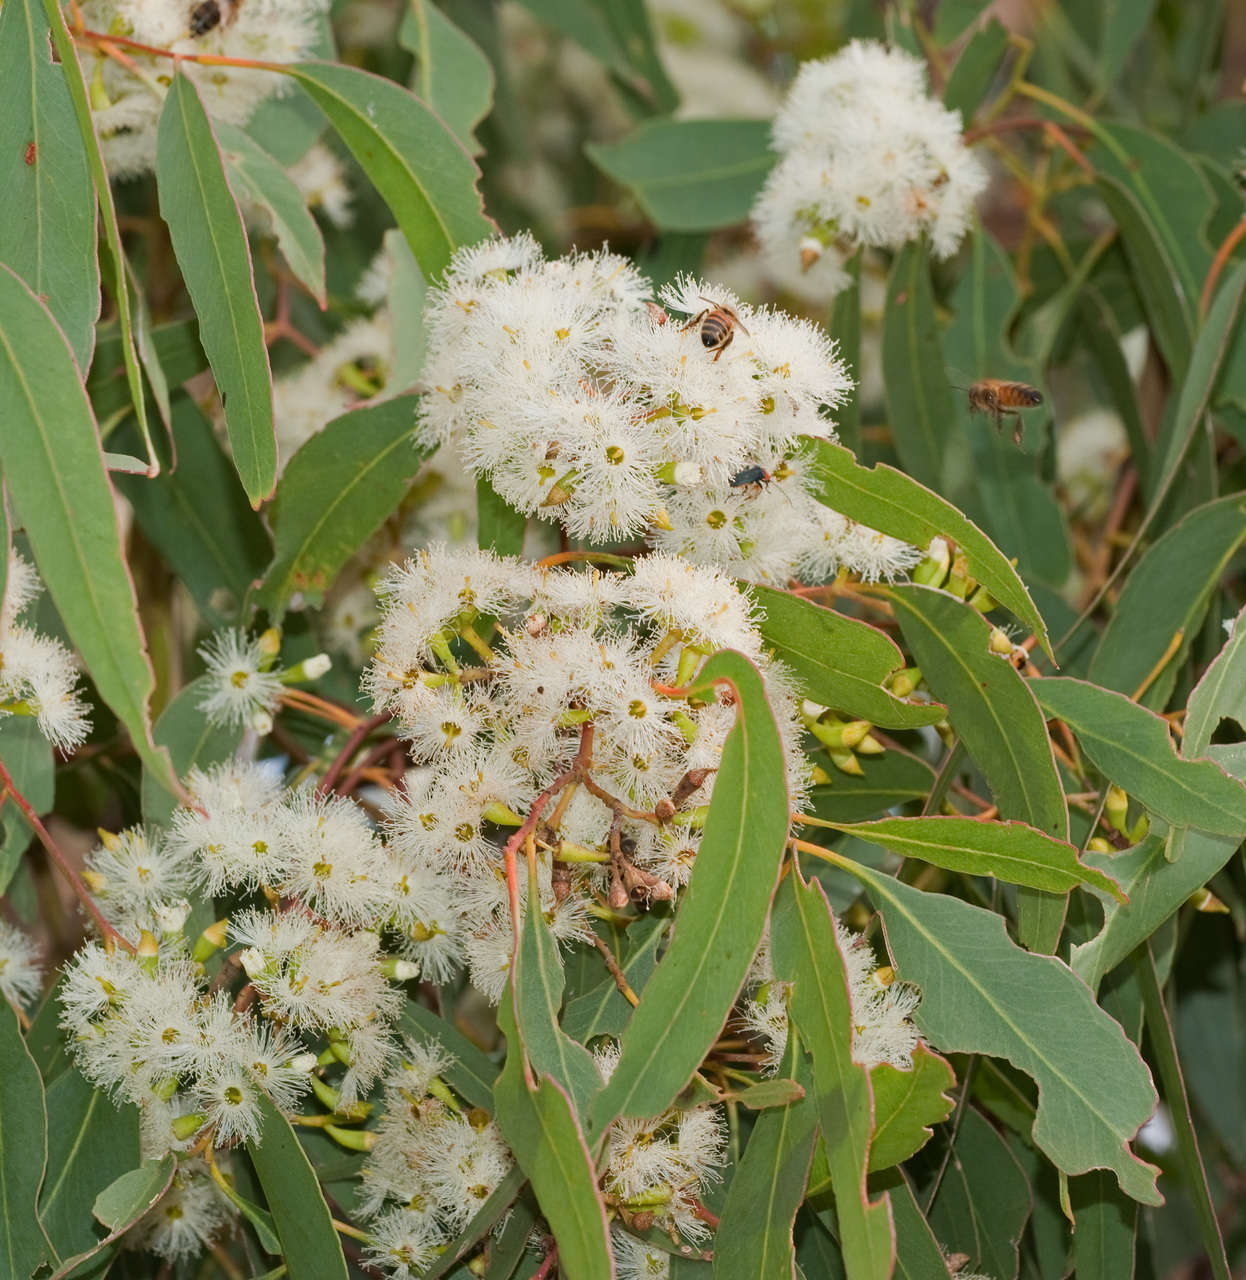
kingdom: Plantae
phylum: Tracheophyta
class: Magnoliopsida
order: Myrtales
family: Myrtaceae
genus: Eucalyptus
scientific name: Eucalyptus microcarpa
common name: Grey-box
